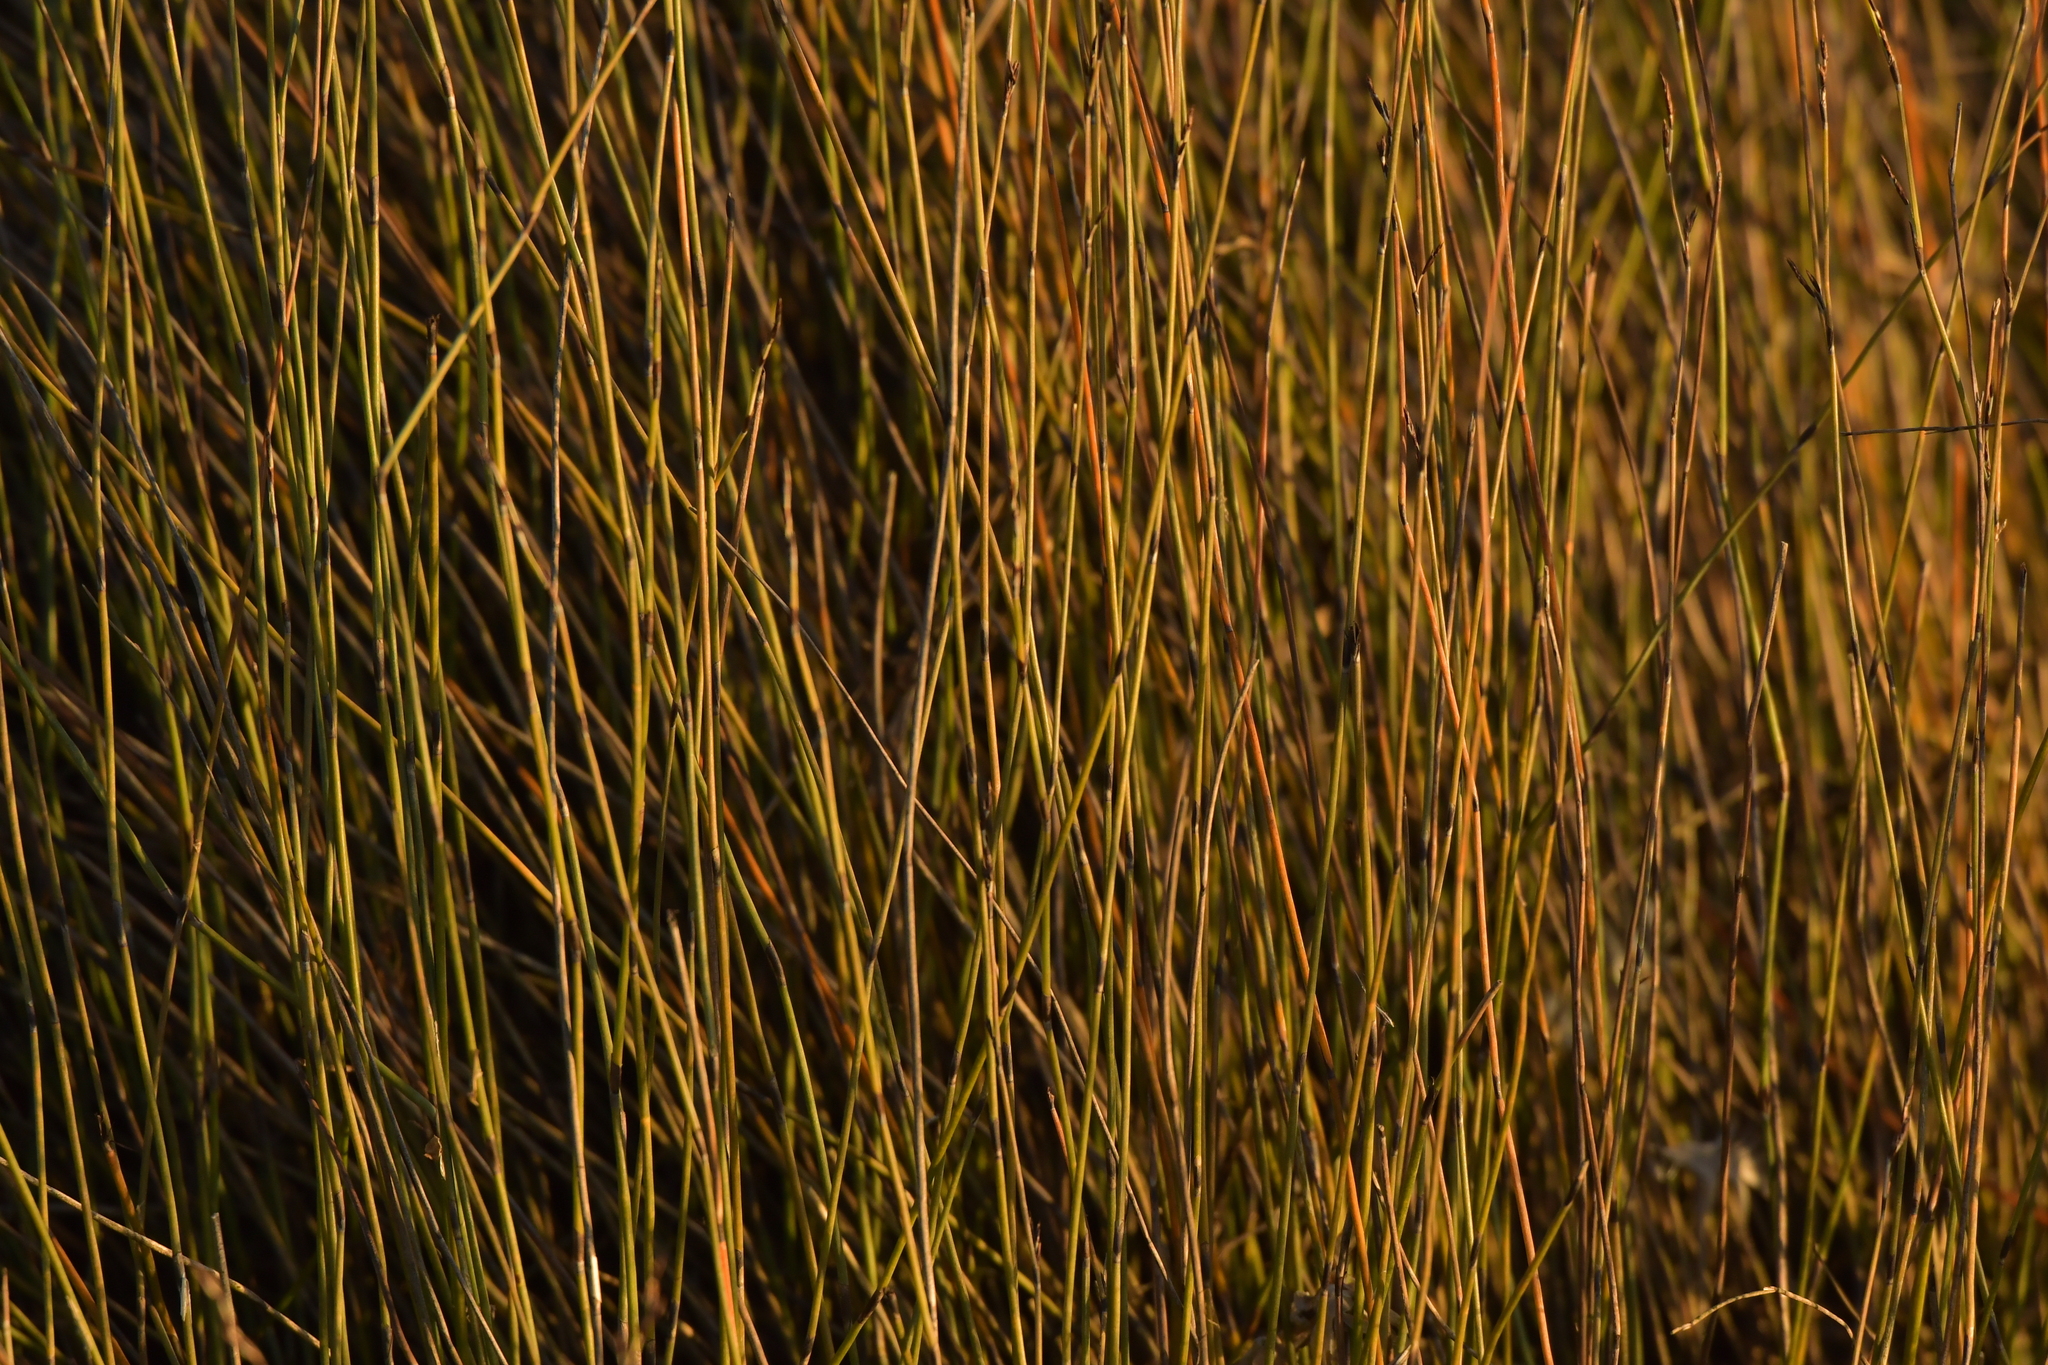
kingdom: Plantae
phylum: Tracheophyta
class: Liliopsida
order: Poales
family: Restionaceae
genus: Apodasmia
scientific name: Apodasmia similis
